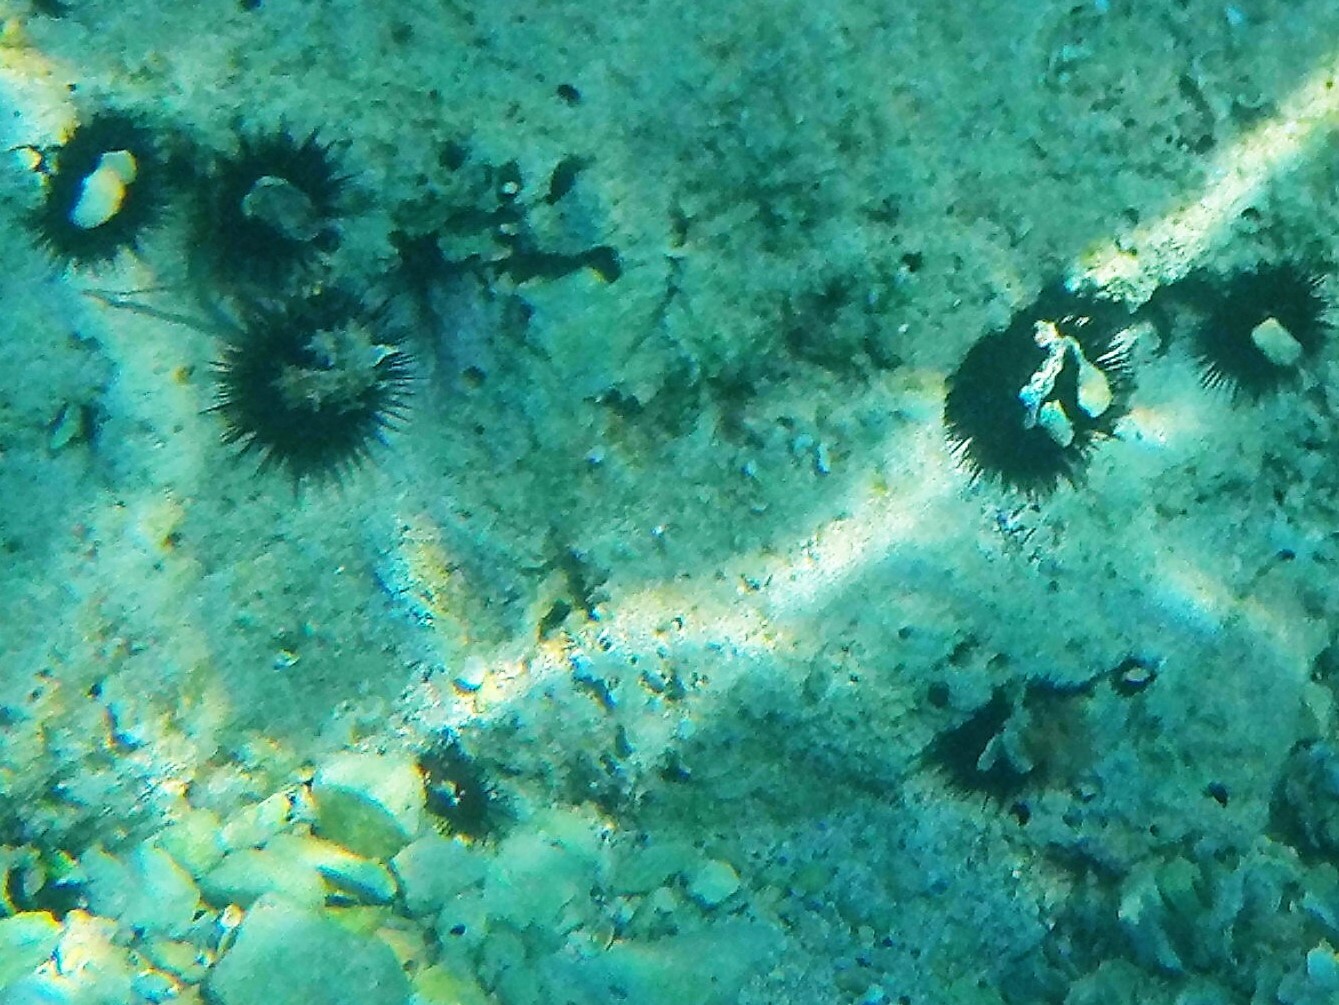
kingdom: Animalia
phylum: Echinodermata
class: Echinoidea
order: Arbacioida
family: Arbaciidae
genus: Arbacia
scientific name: Arbacia lixula
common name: Black sea urchin
